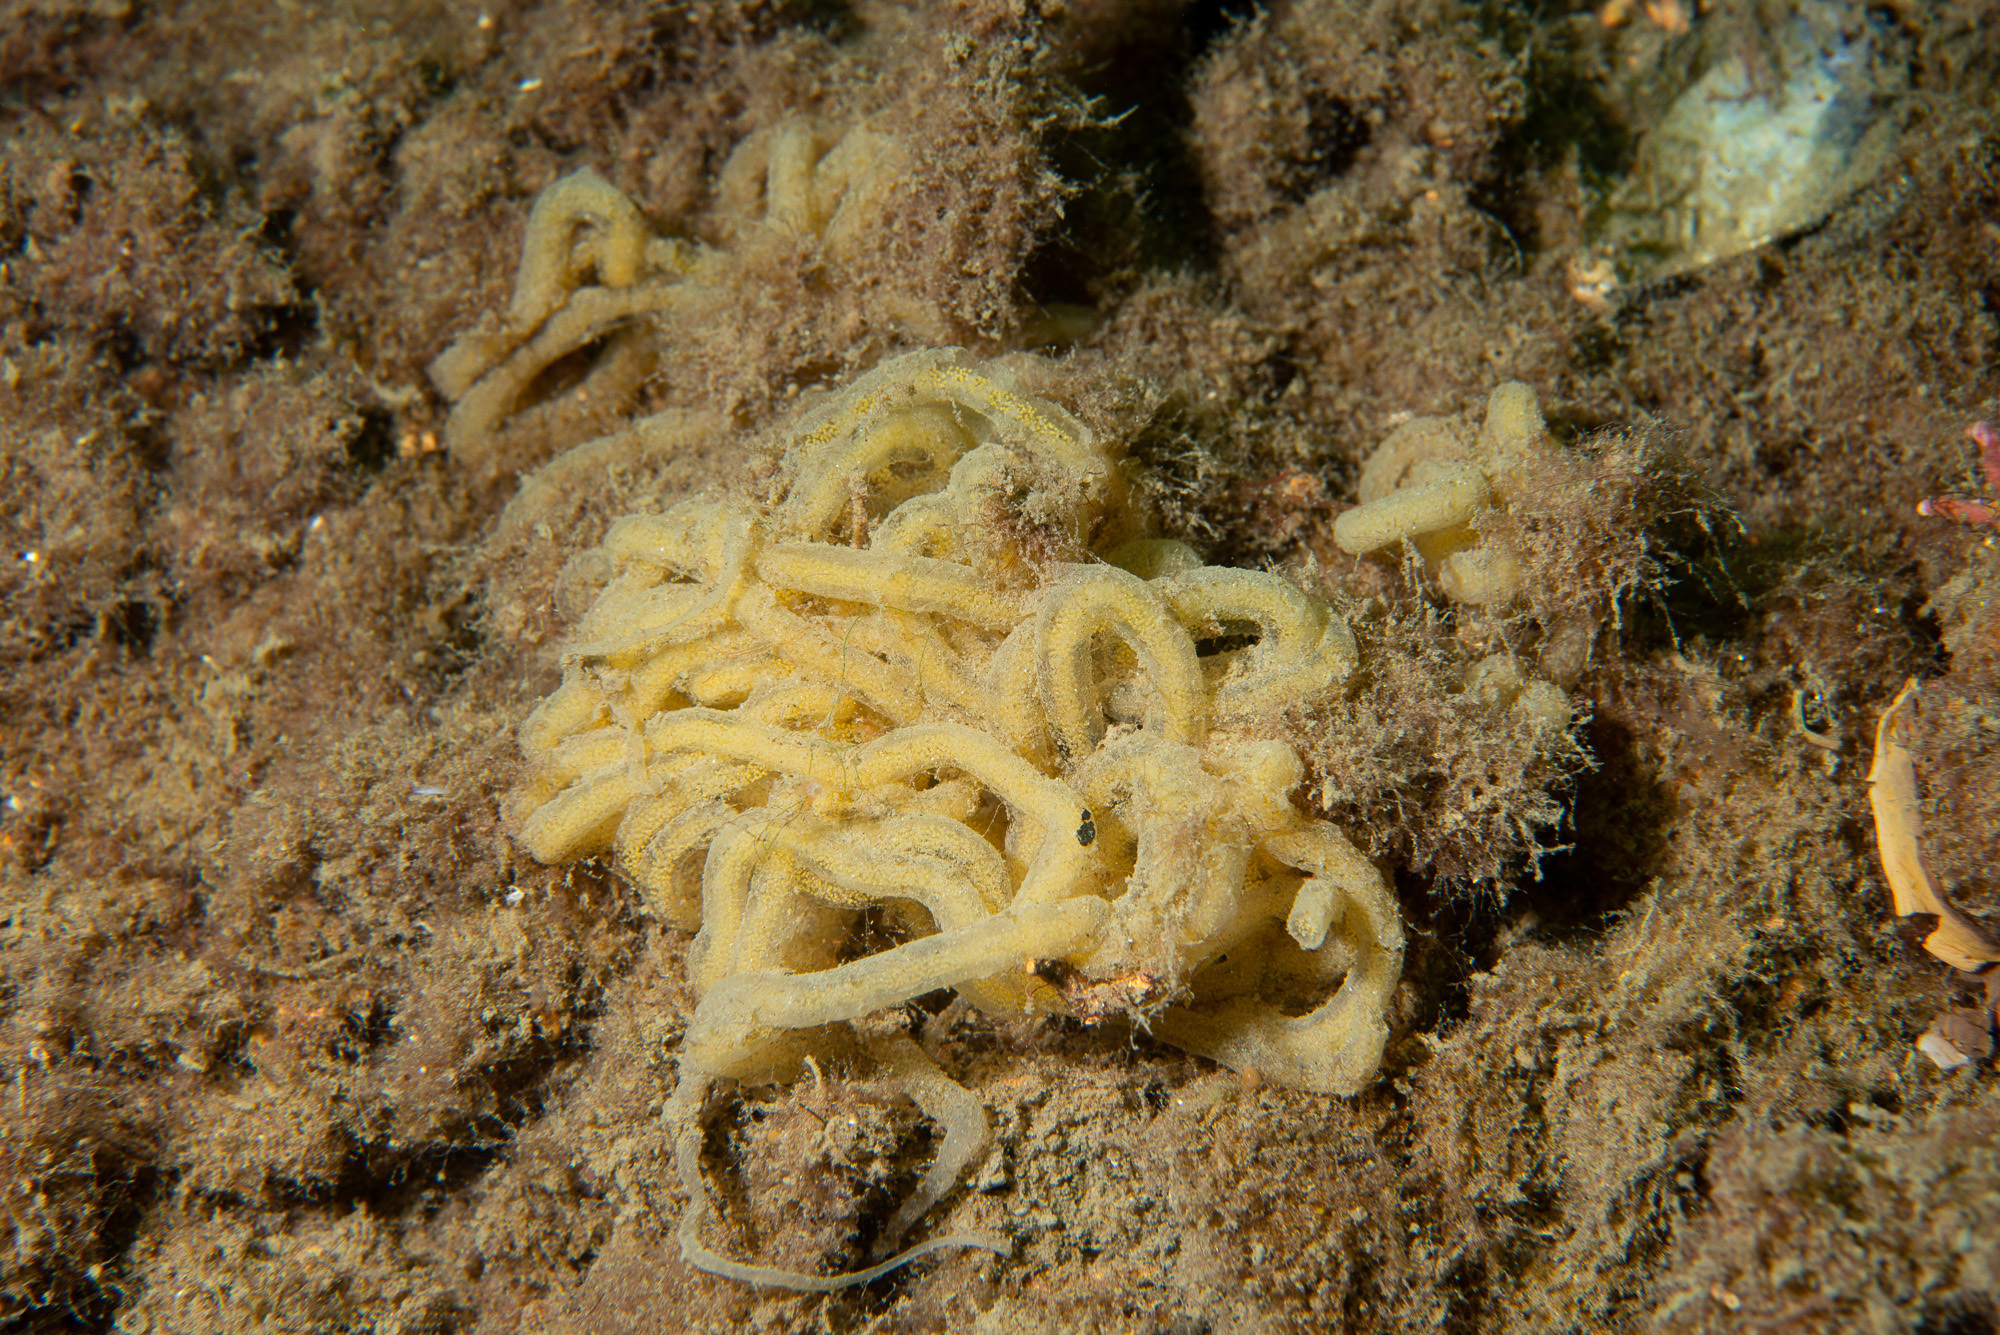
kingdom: Animalia
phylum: Mollusca
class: Gastropoda
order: Aplysiida
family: Akeridae
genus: Akera
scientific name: Akera bullata
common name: Common bubble snail
